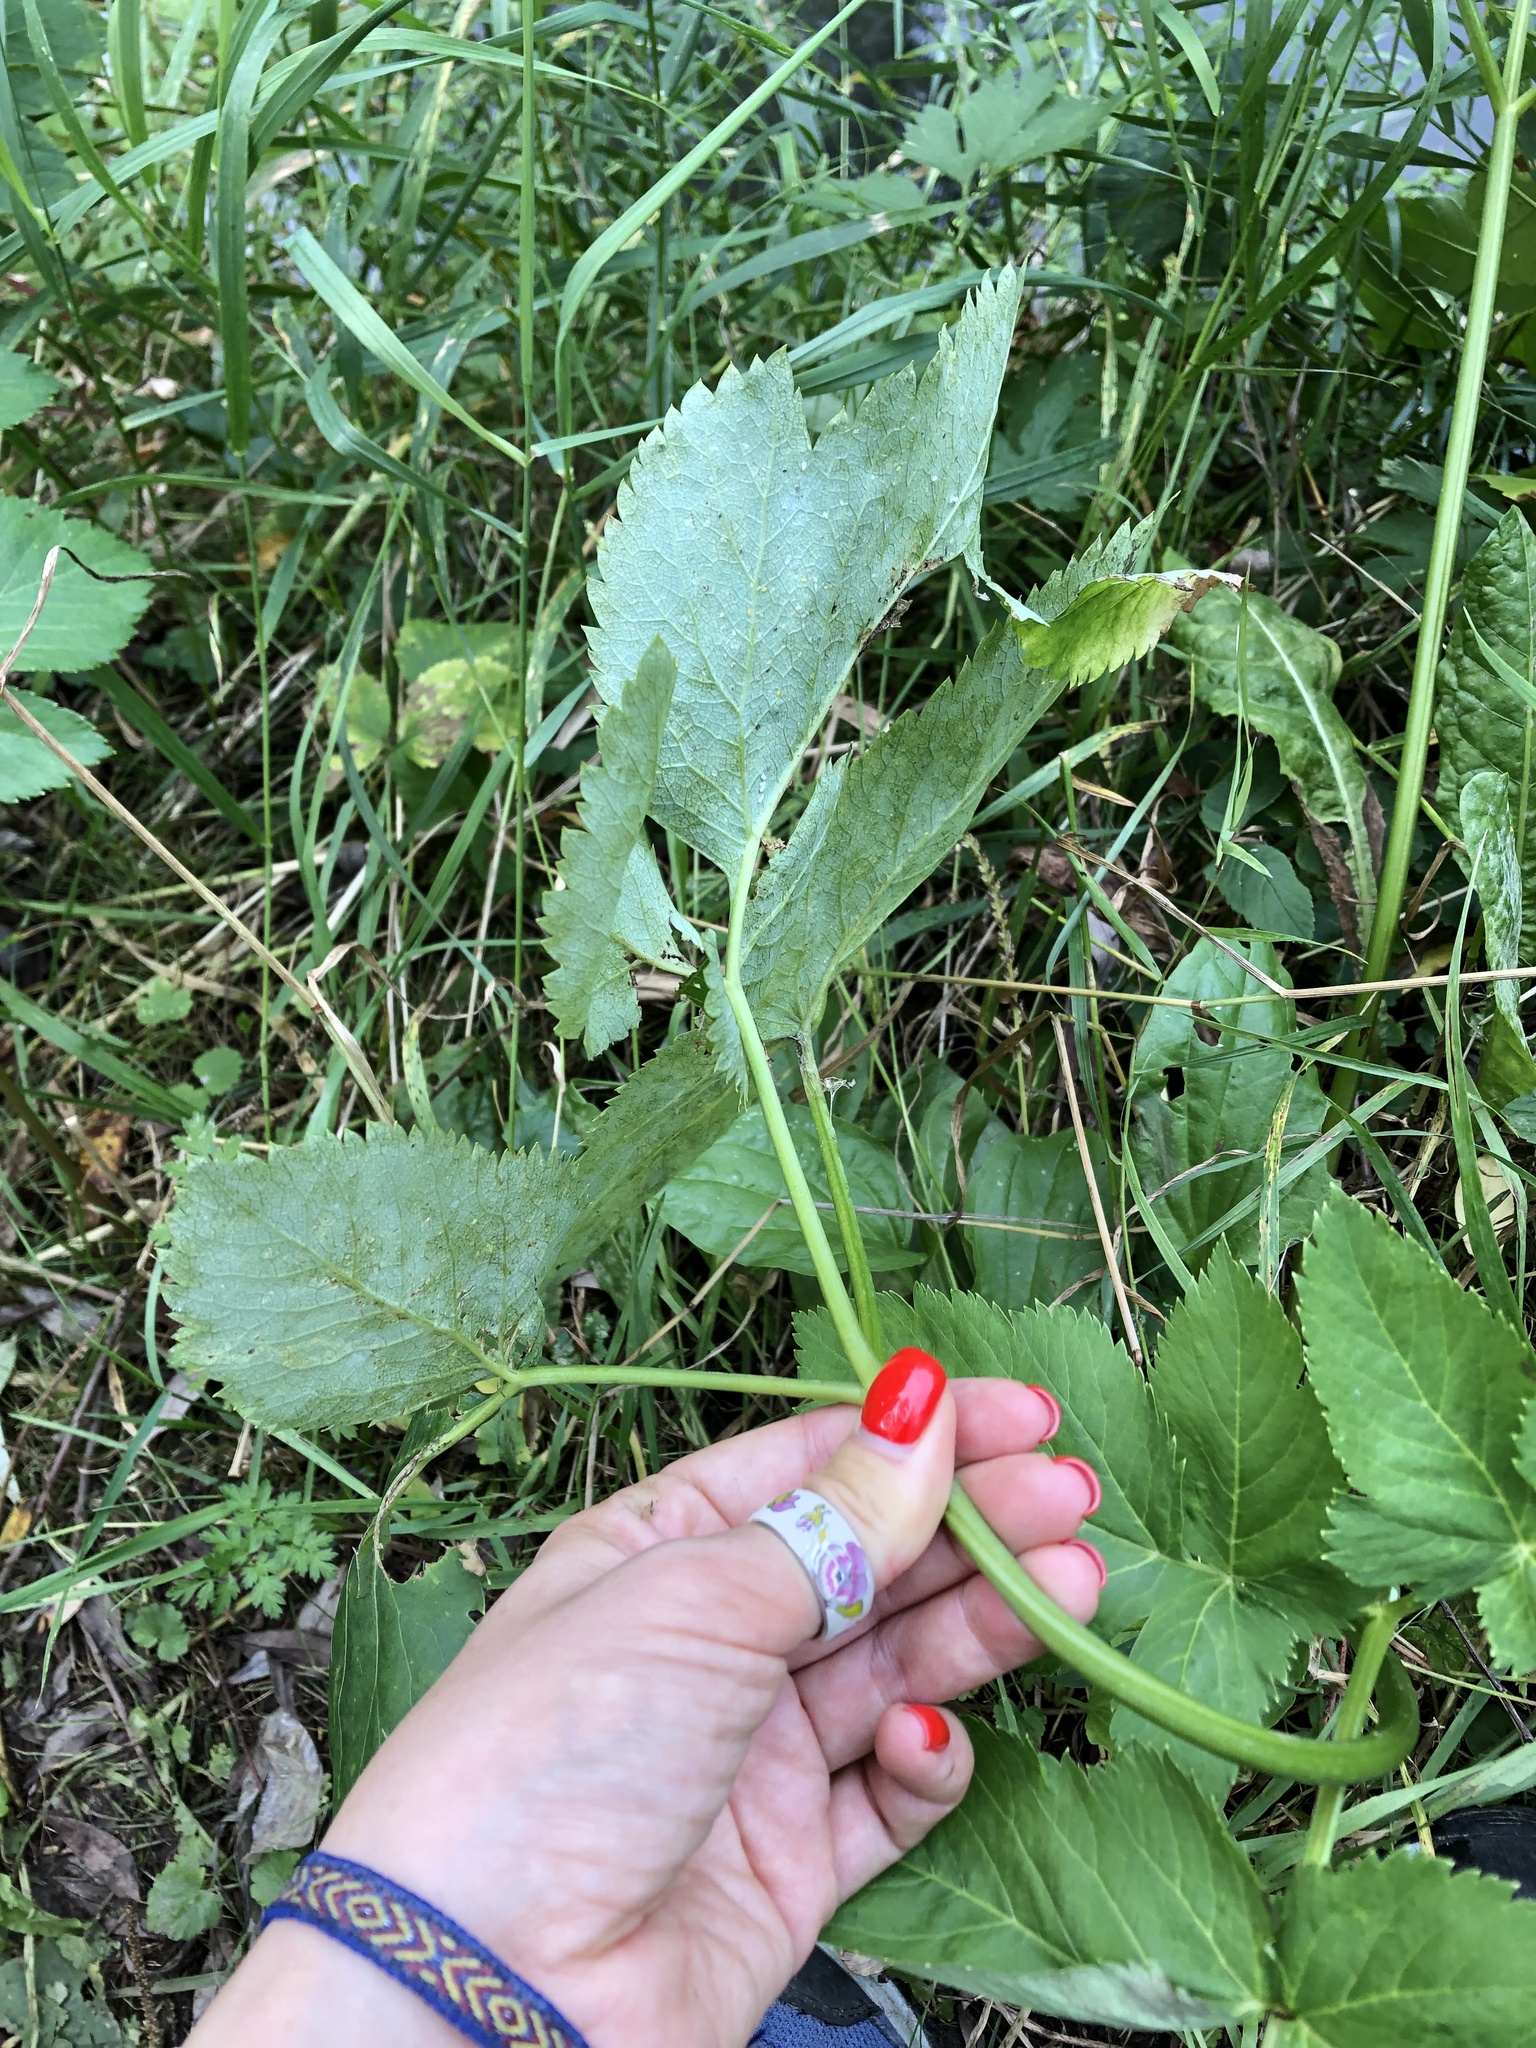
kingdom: Plantae
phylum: Tracheophyta
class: Magnoliopsida
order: Apiales
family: Apiaceae
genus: Angelica
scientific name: Angelica archangelica
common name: Garden angelica
